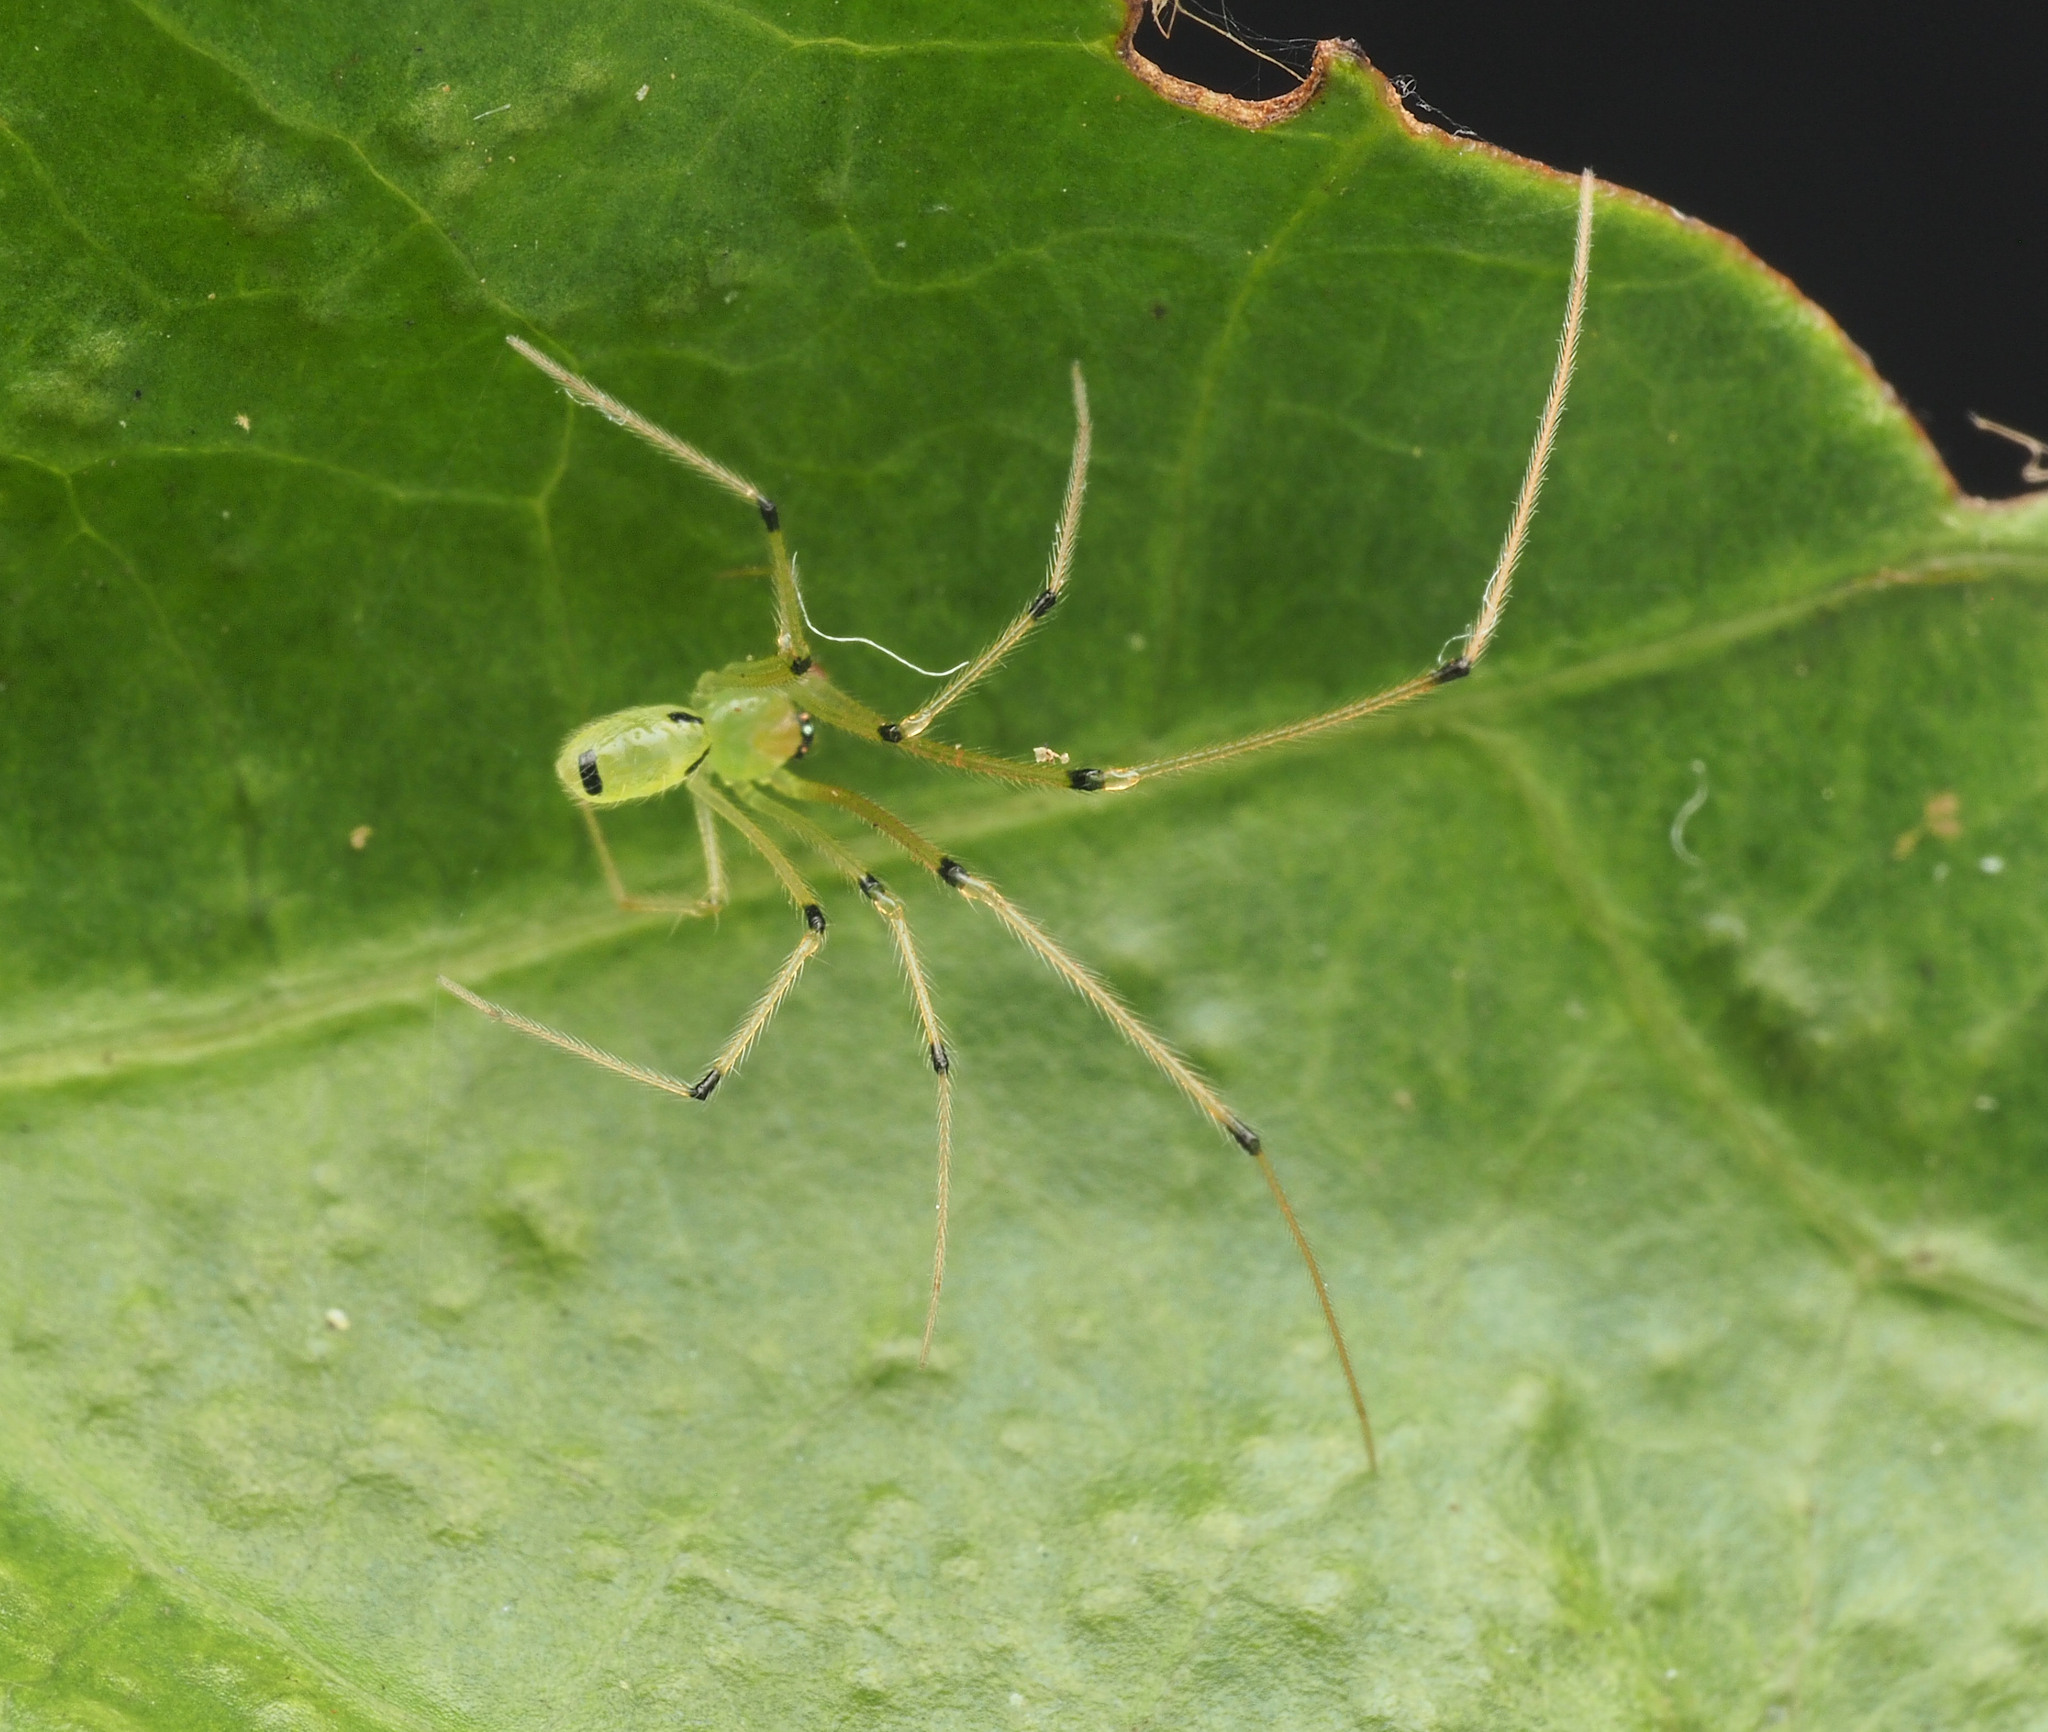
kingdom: Animalia
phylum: Arthropoda
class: Arachnida
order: Araneae
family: Theridiidae
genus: Chrysso
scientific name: Chrysso
